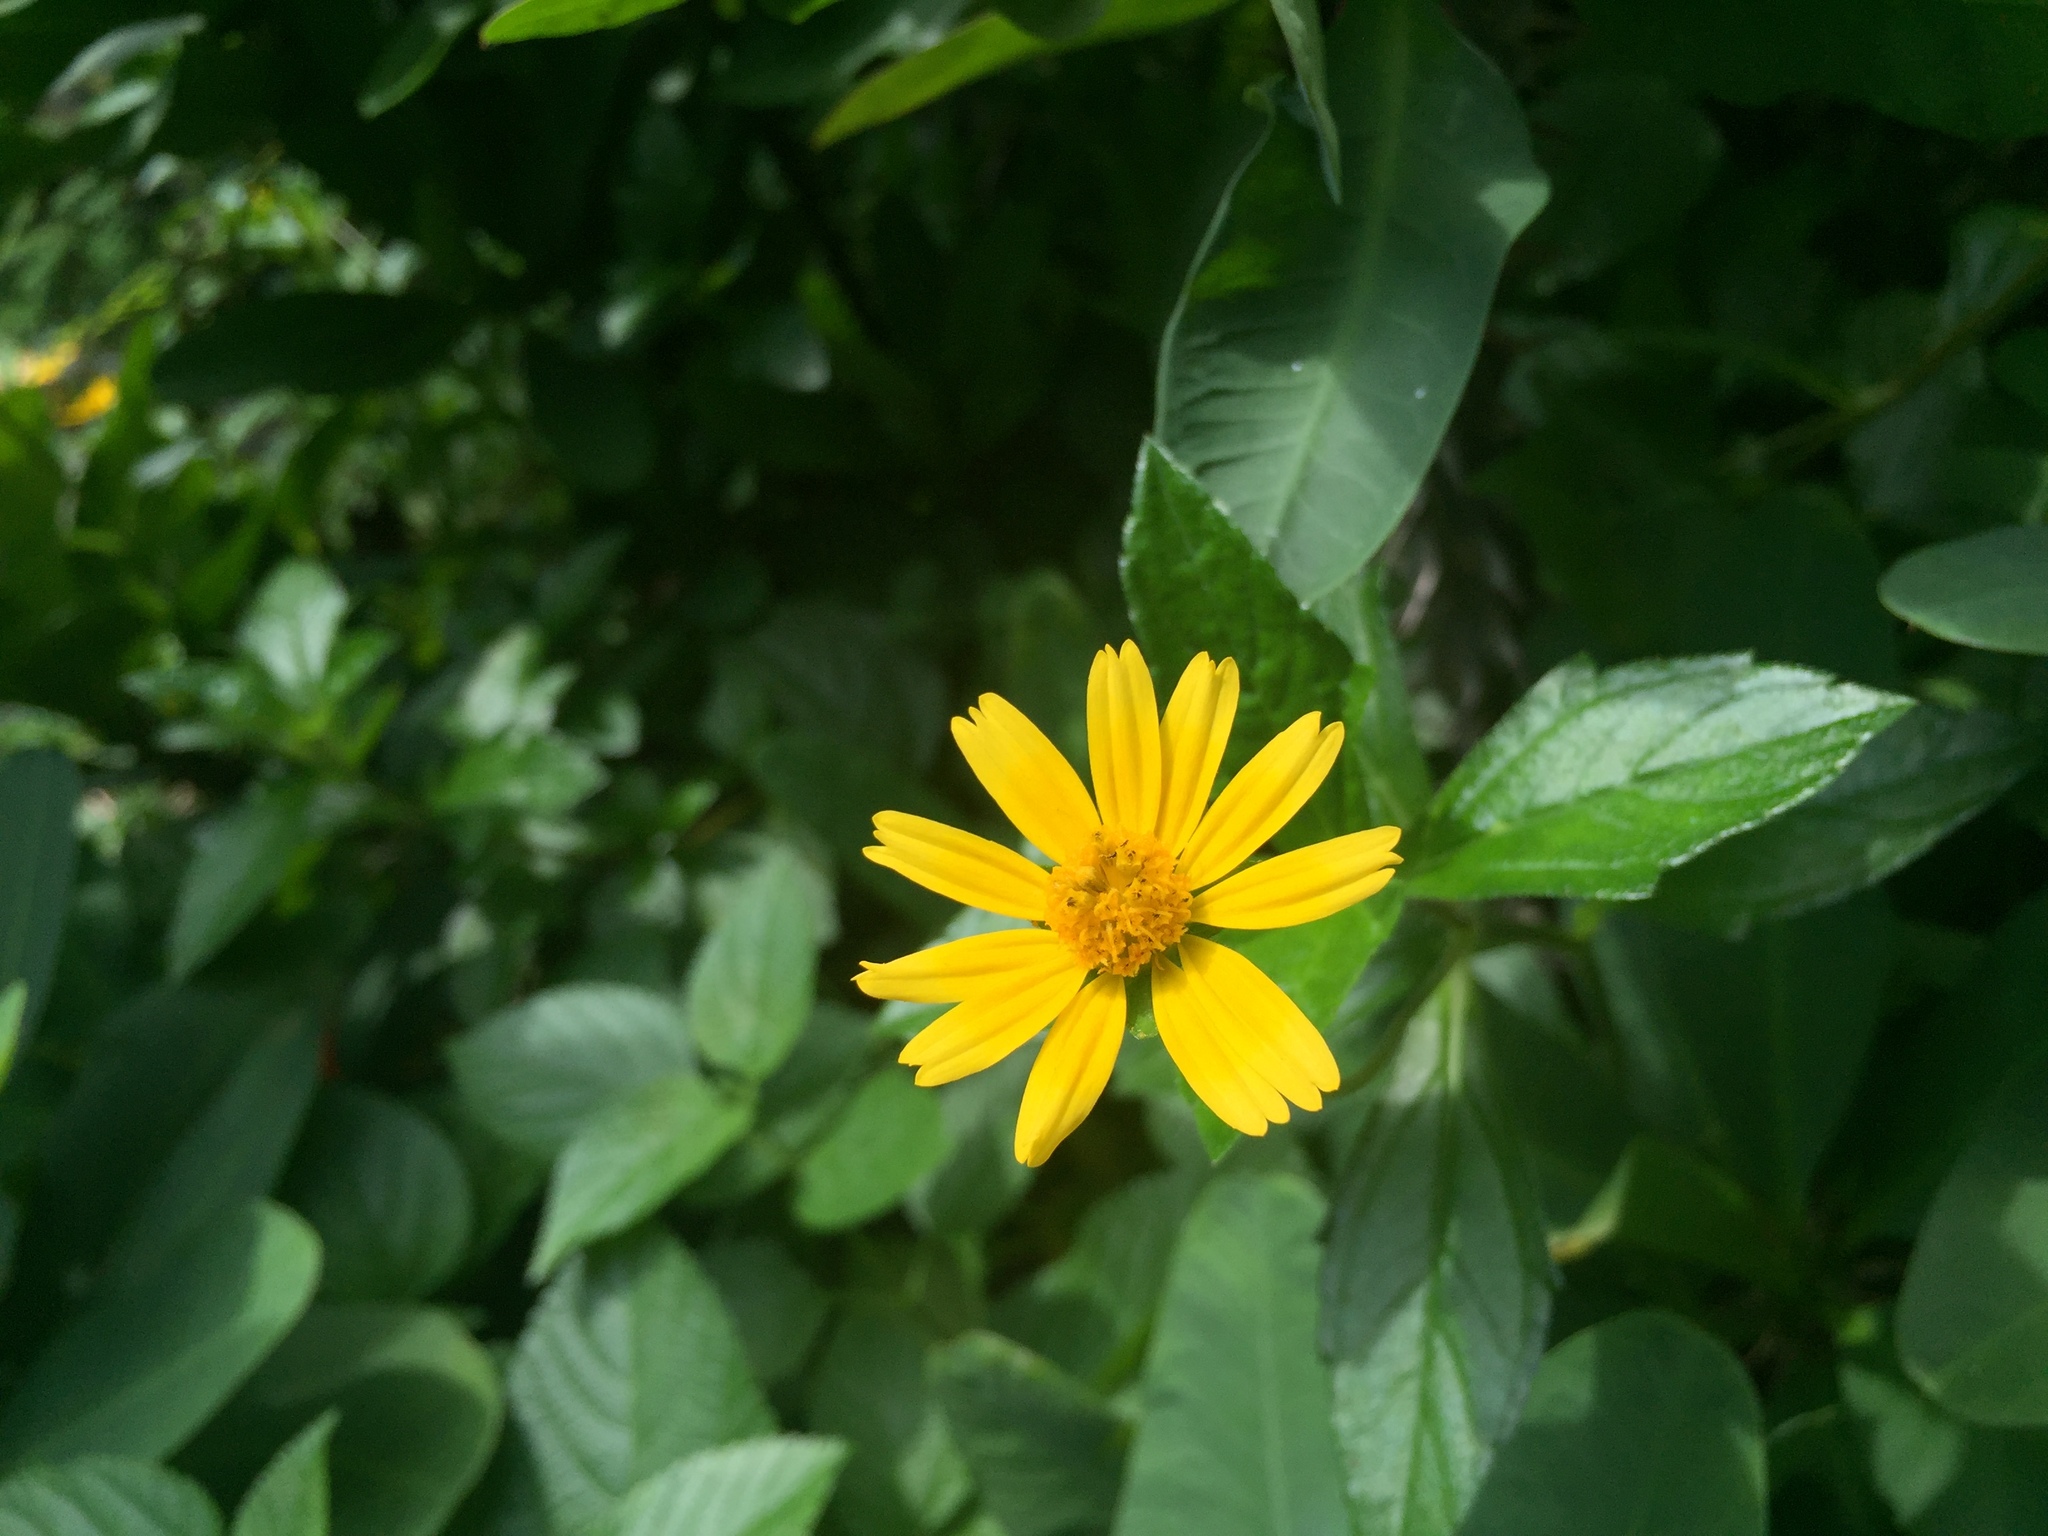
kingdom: Plantae
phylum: Tracheophyta
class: Magnoliopsida
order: Asterales
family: Asteraceae
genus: Sphagneticola
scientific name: Sphagneticola trilobata
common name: Bay biscayne creeping-oxeye
